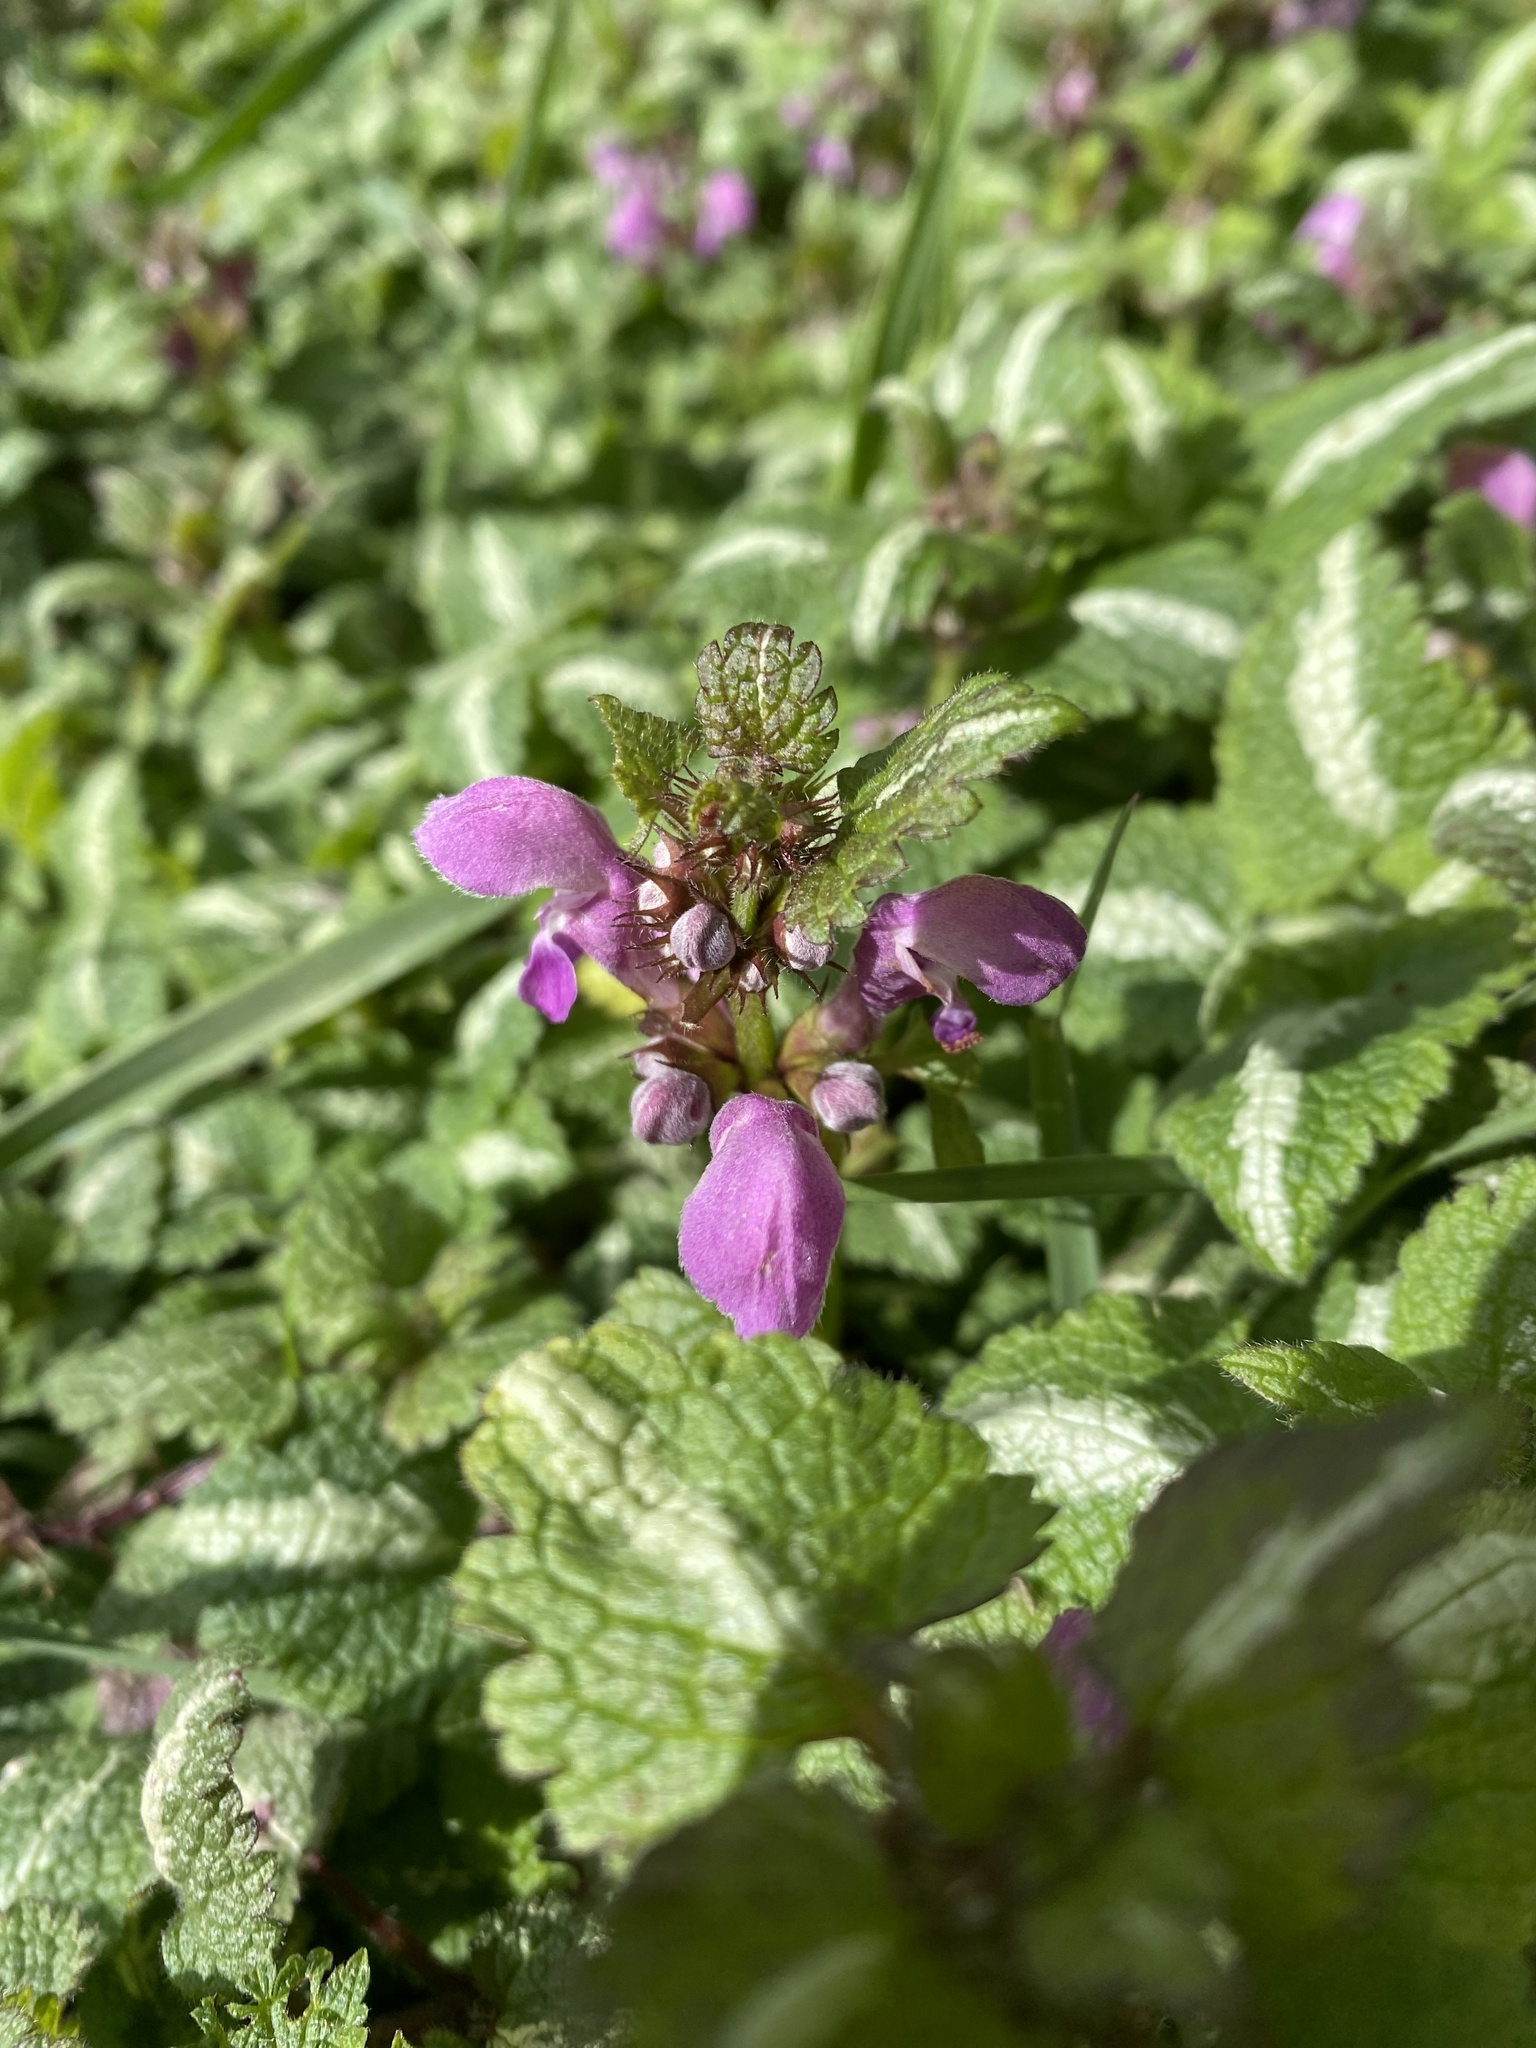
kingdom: Plantae
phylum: Tracheophyta
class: Magnoliopsida
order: Lamiales
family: Lamiaceae
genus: Lamium
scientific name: Lamium maculatum
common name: Spotted dead-nettle
